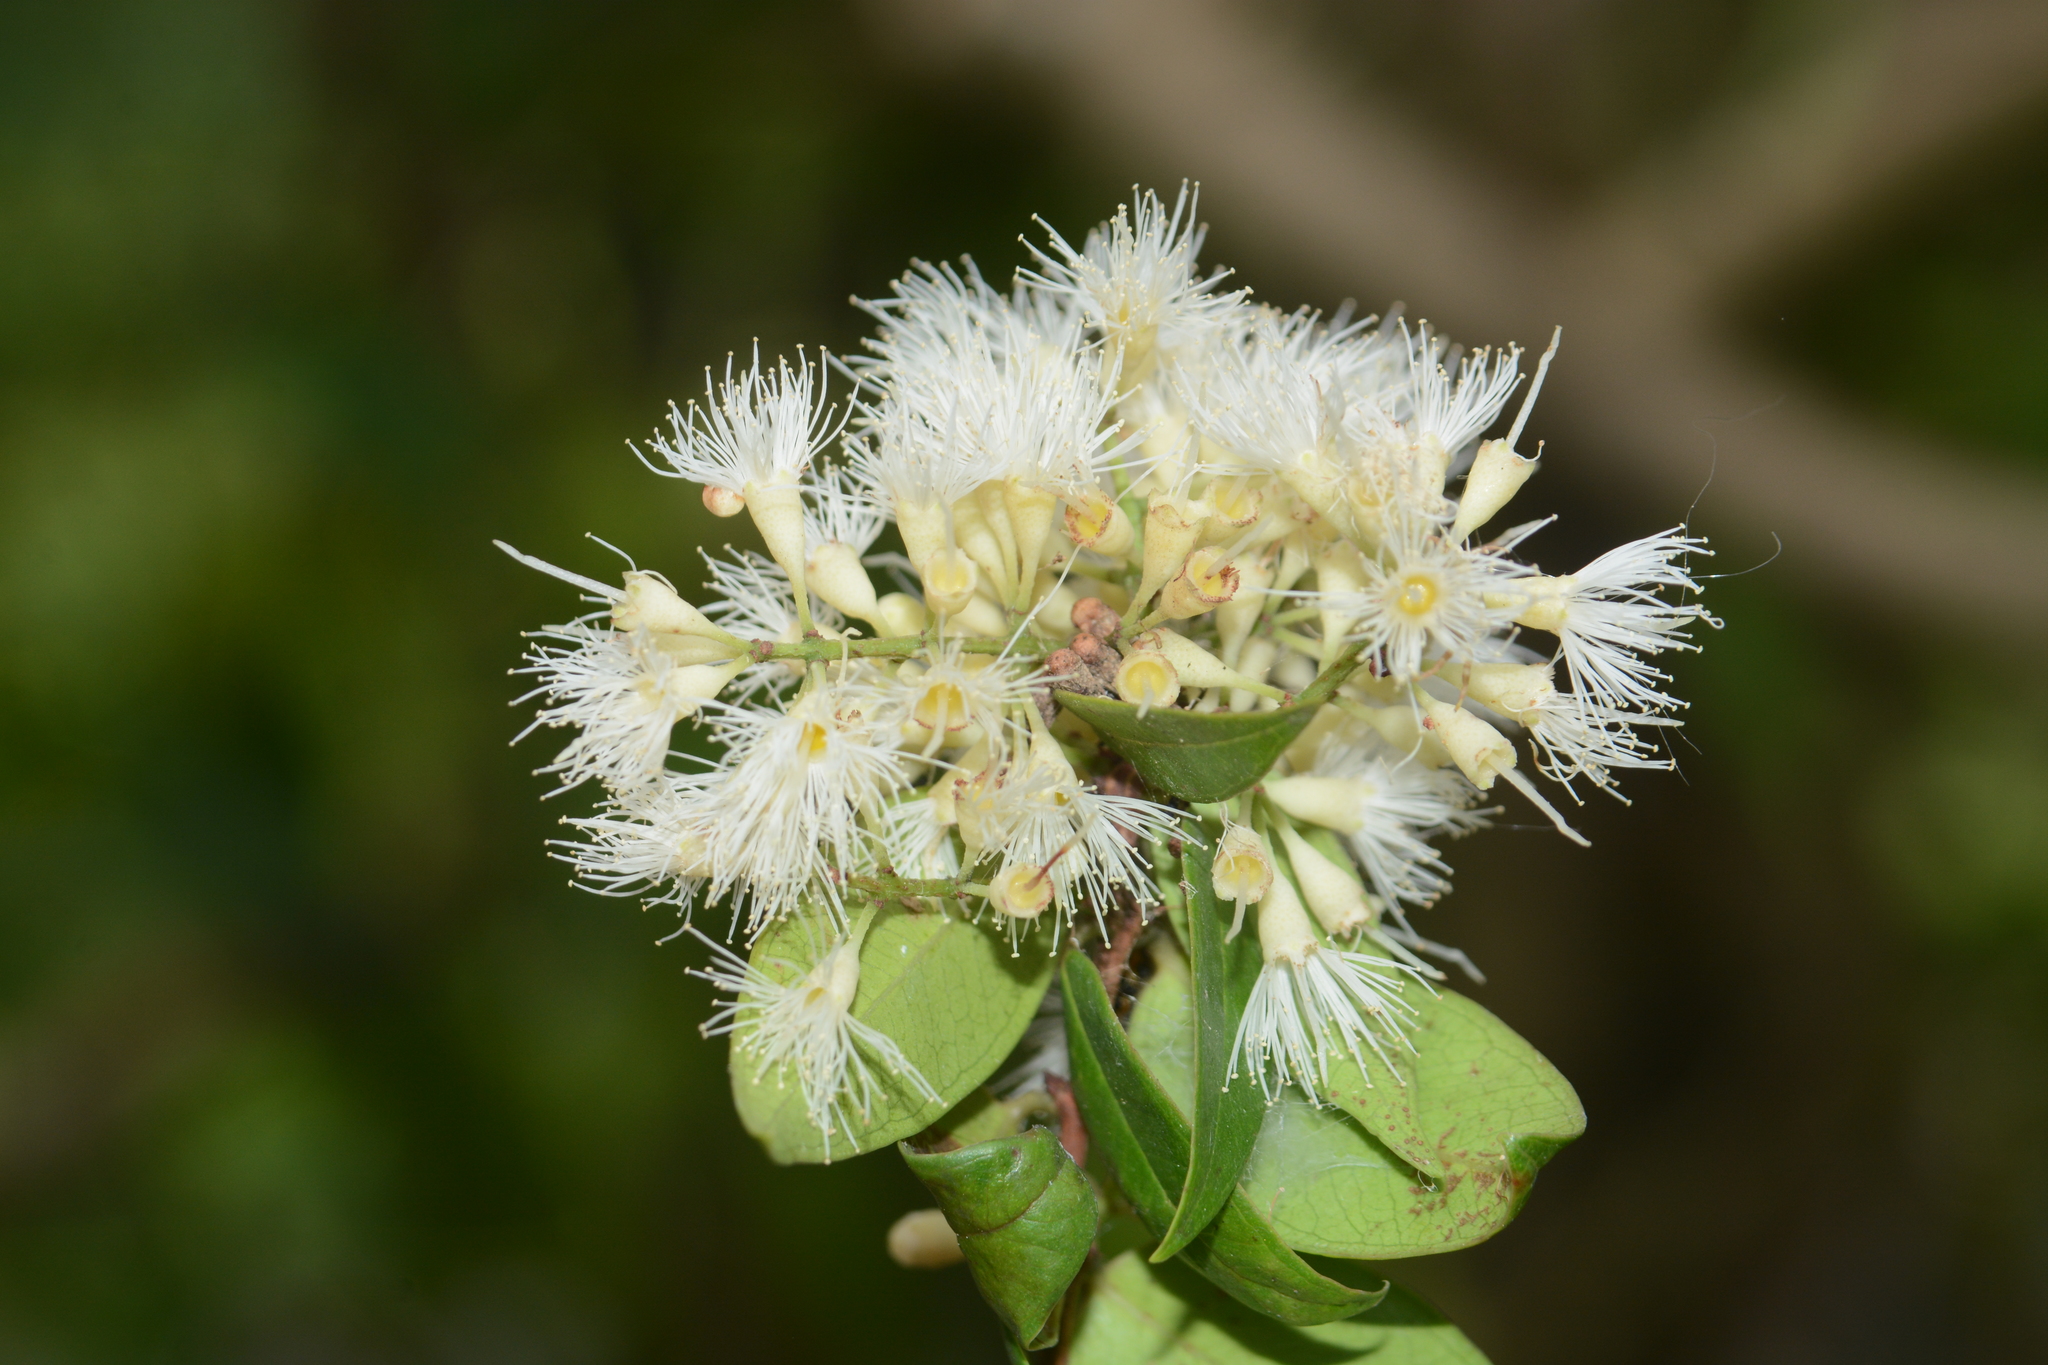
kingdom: Plantae
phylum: Tracheophyta
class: Magnoliopsida
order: Myrtales
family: Myrtaceae
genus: Syzygium
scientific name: Syzygium zeylanicum
